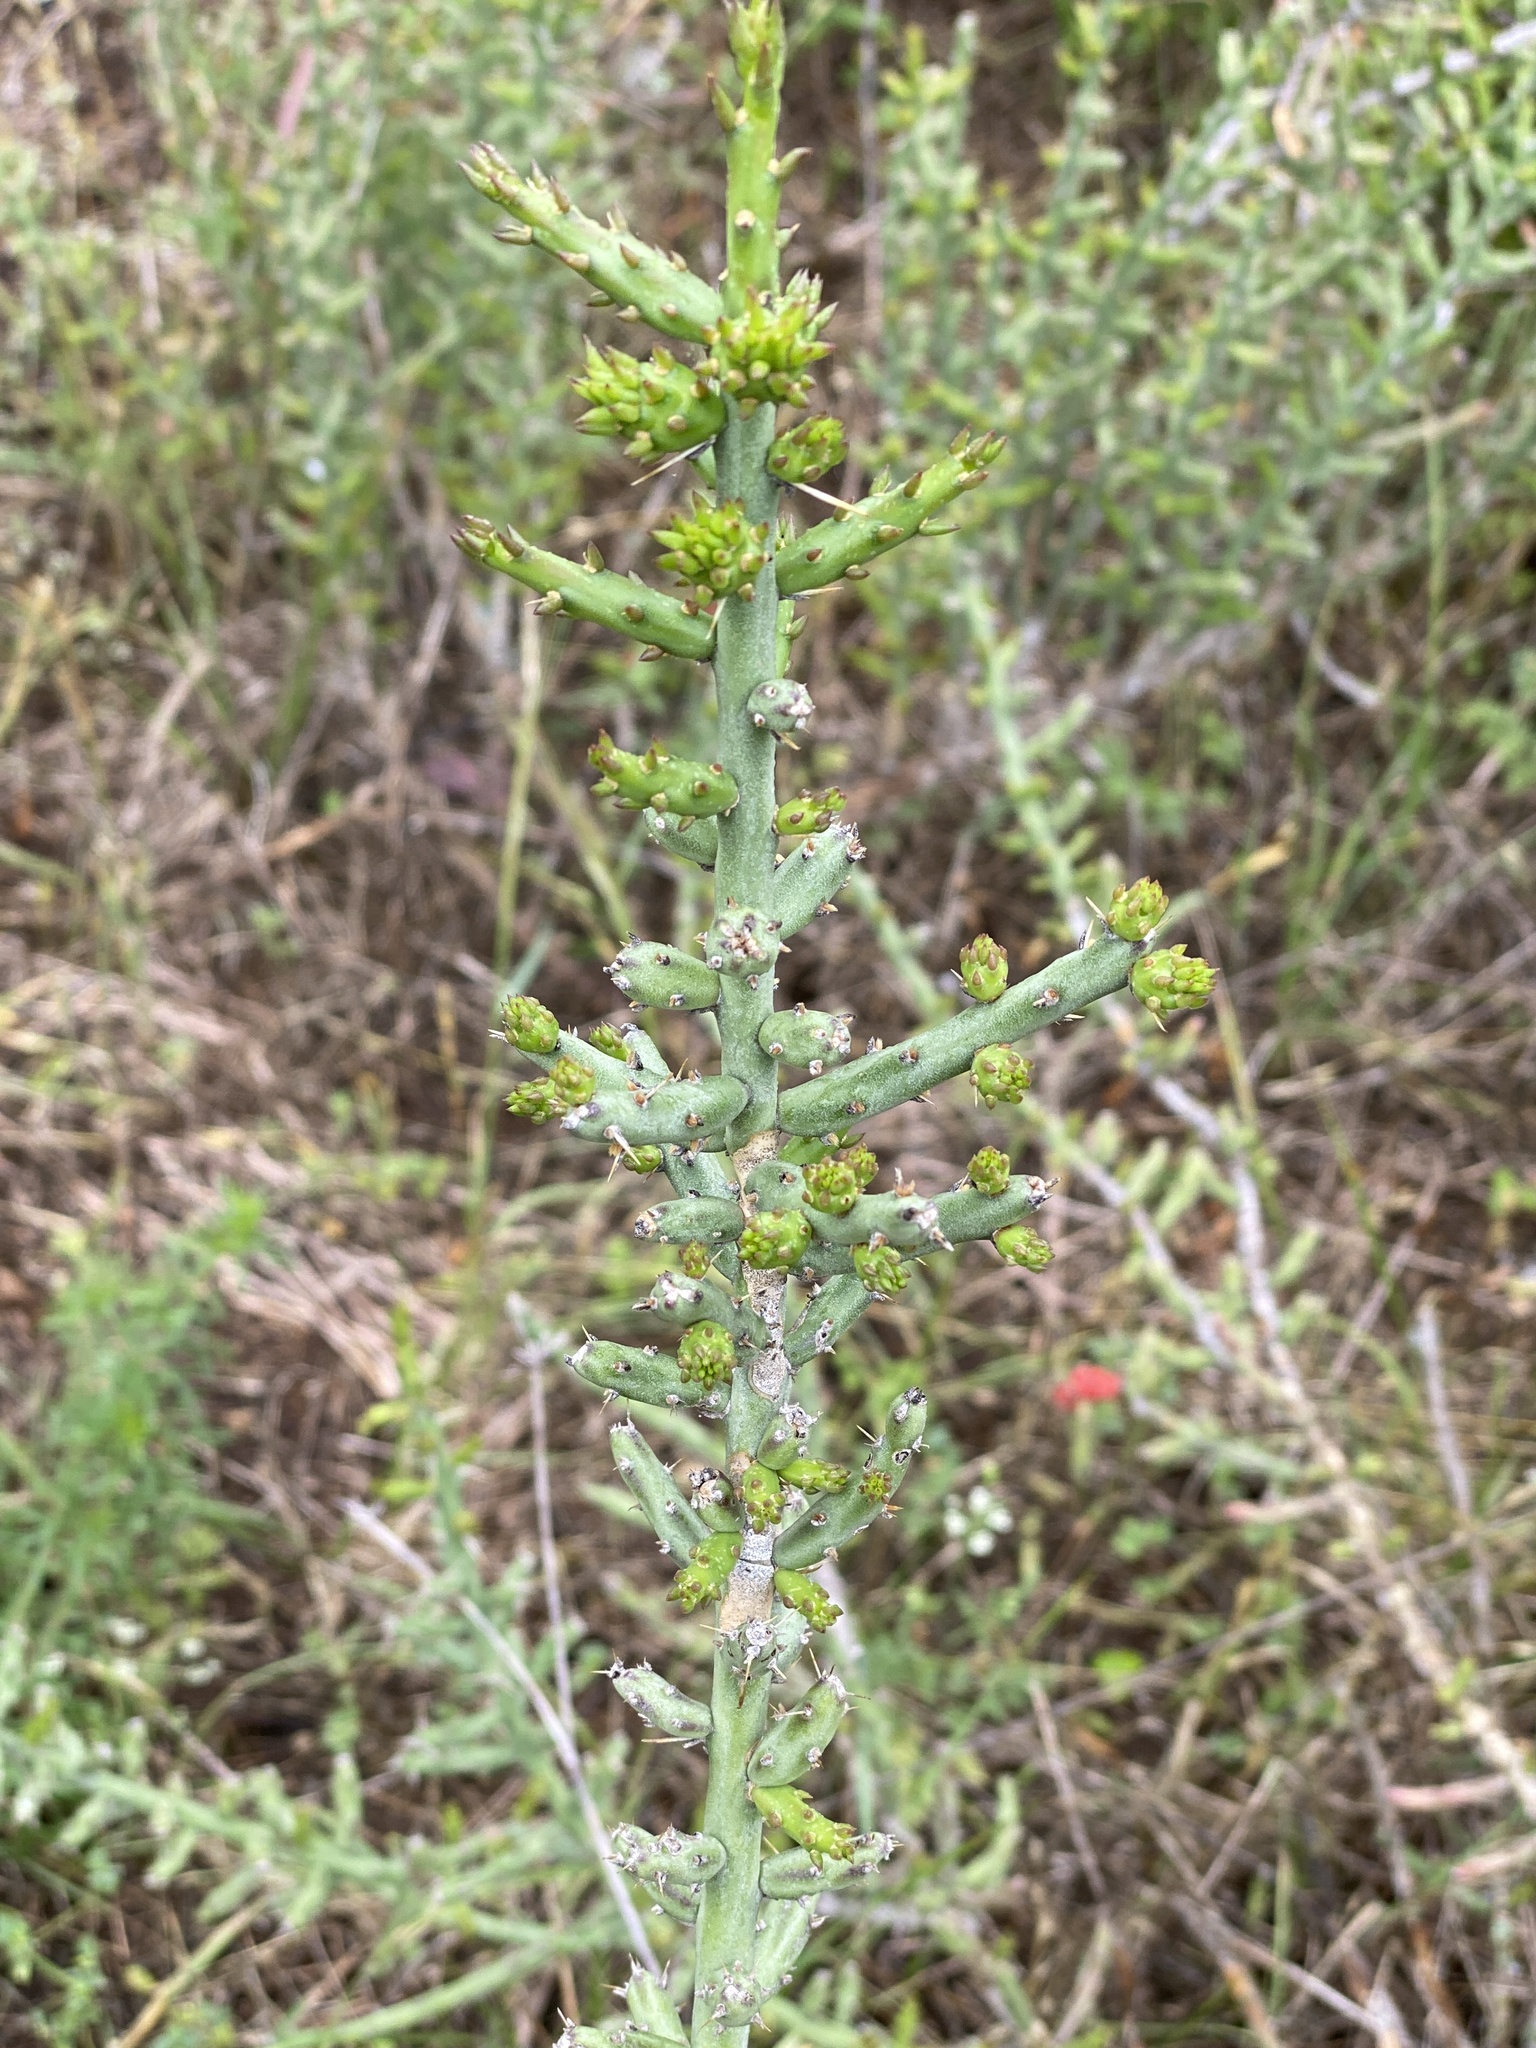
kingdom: Plantae
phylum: Tracheophyta
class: Magnoliopsida
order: Caryophyllales
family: Cactaceae
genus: Cylindropuntia
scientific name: Cylindropuntia leptocaulis
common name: Christmas cactus
